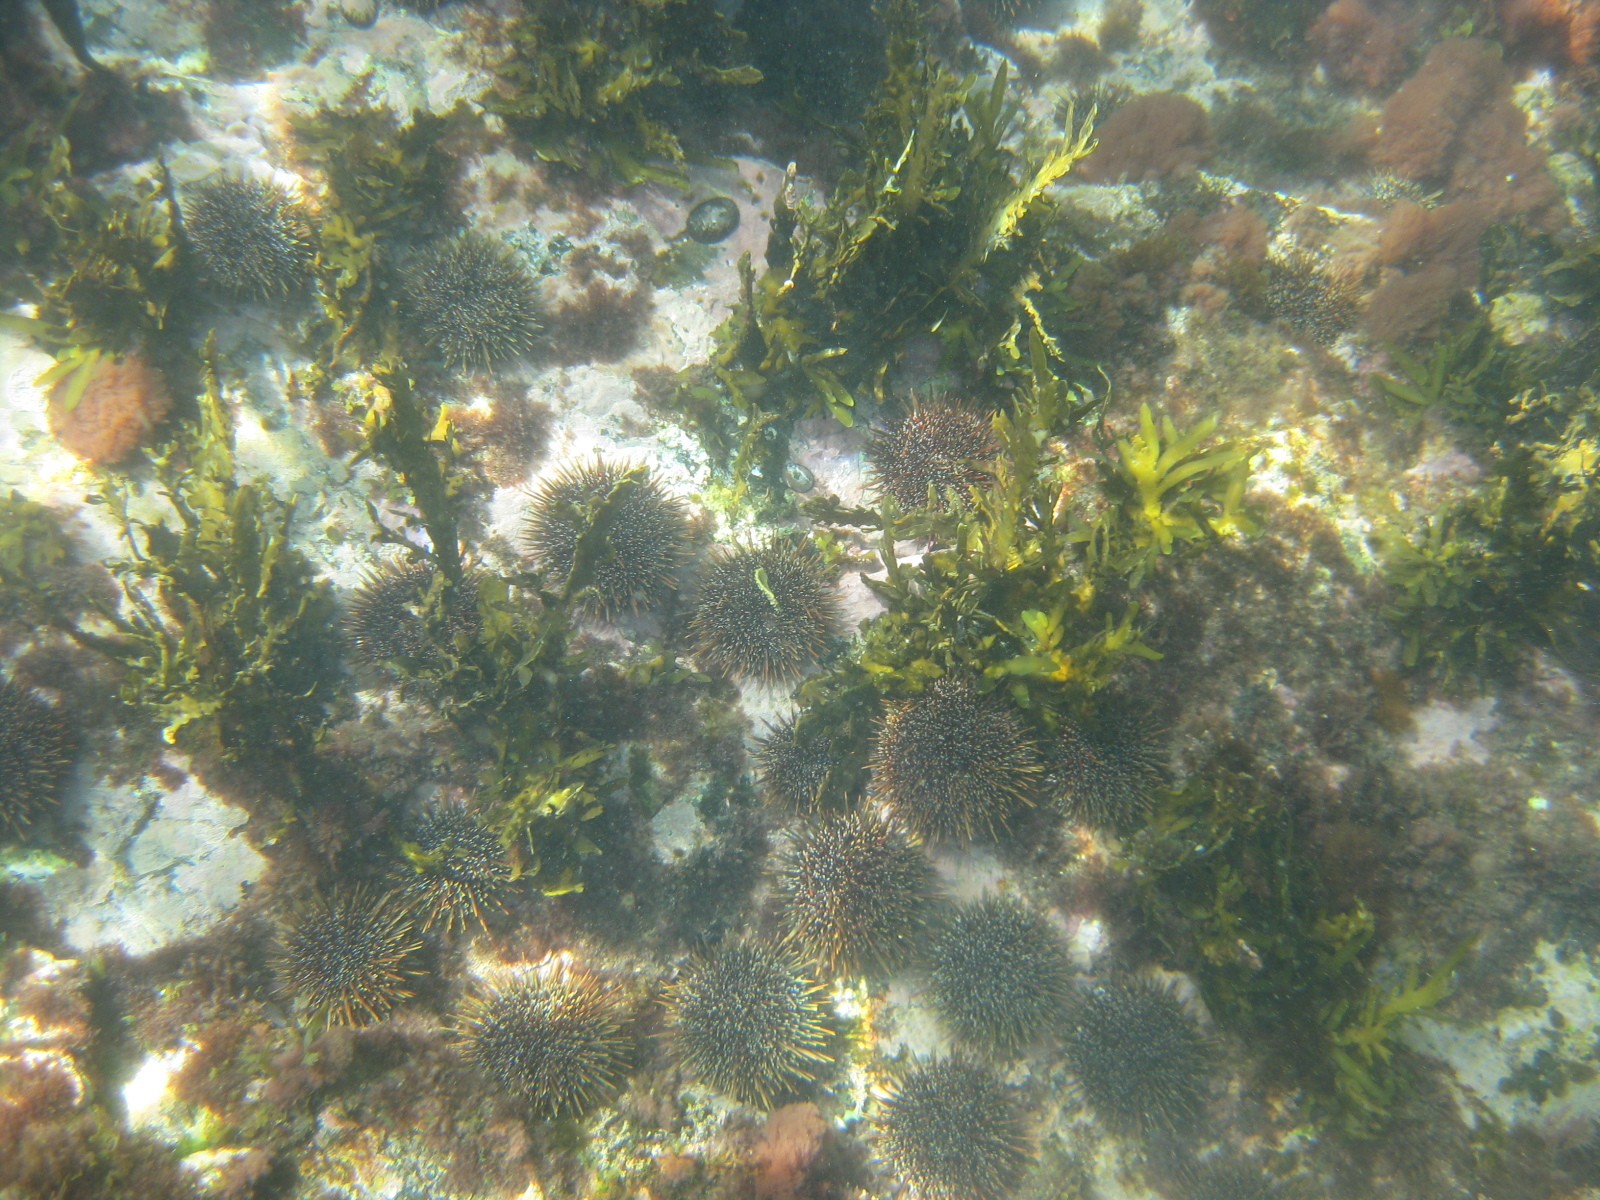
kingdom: Animalia
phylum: Echinodermata
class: Echinoidea
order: Camarodonta
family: Echinometridae
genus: Evechinus
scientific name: Evechinus chloroticus
